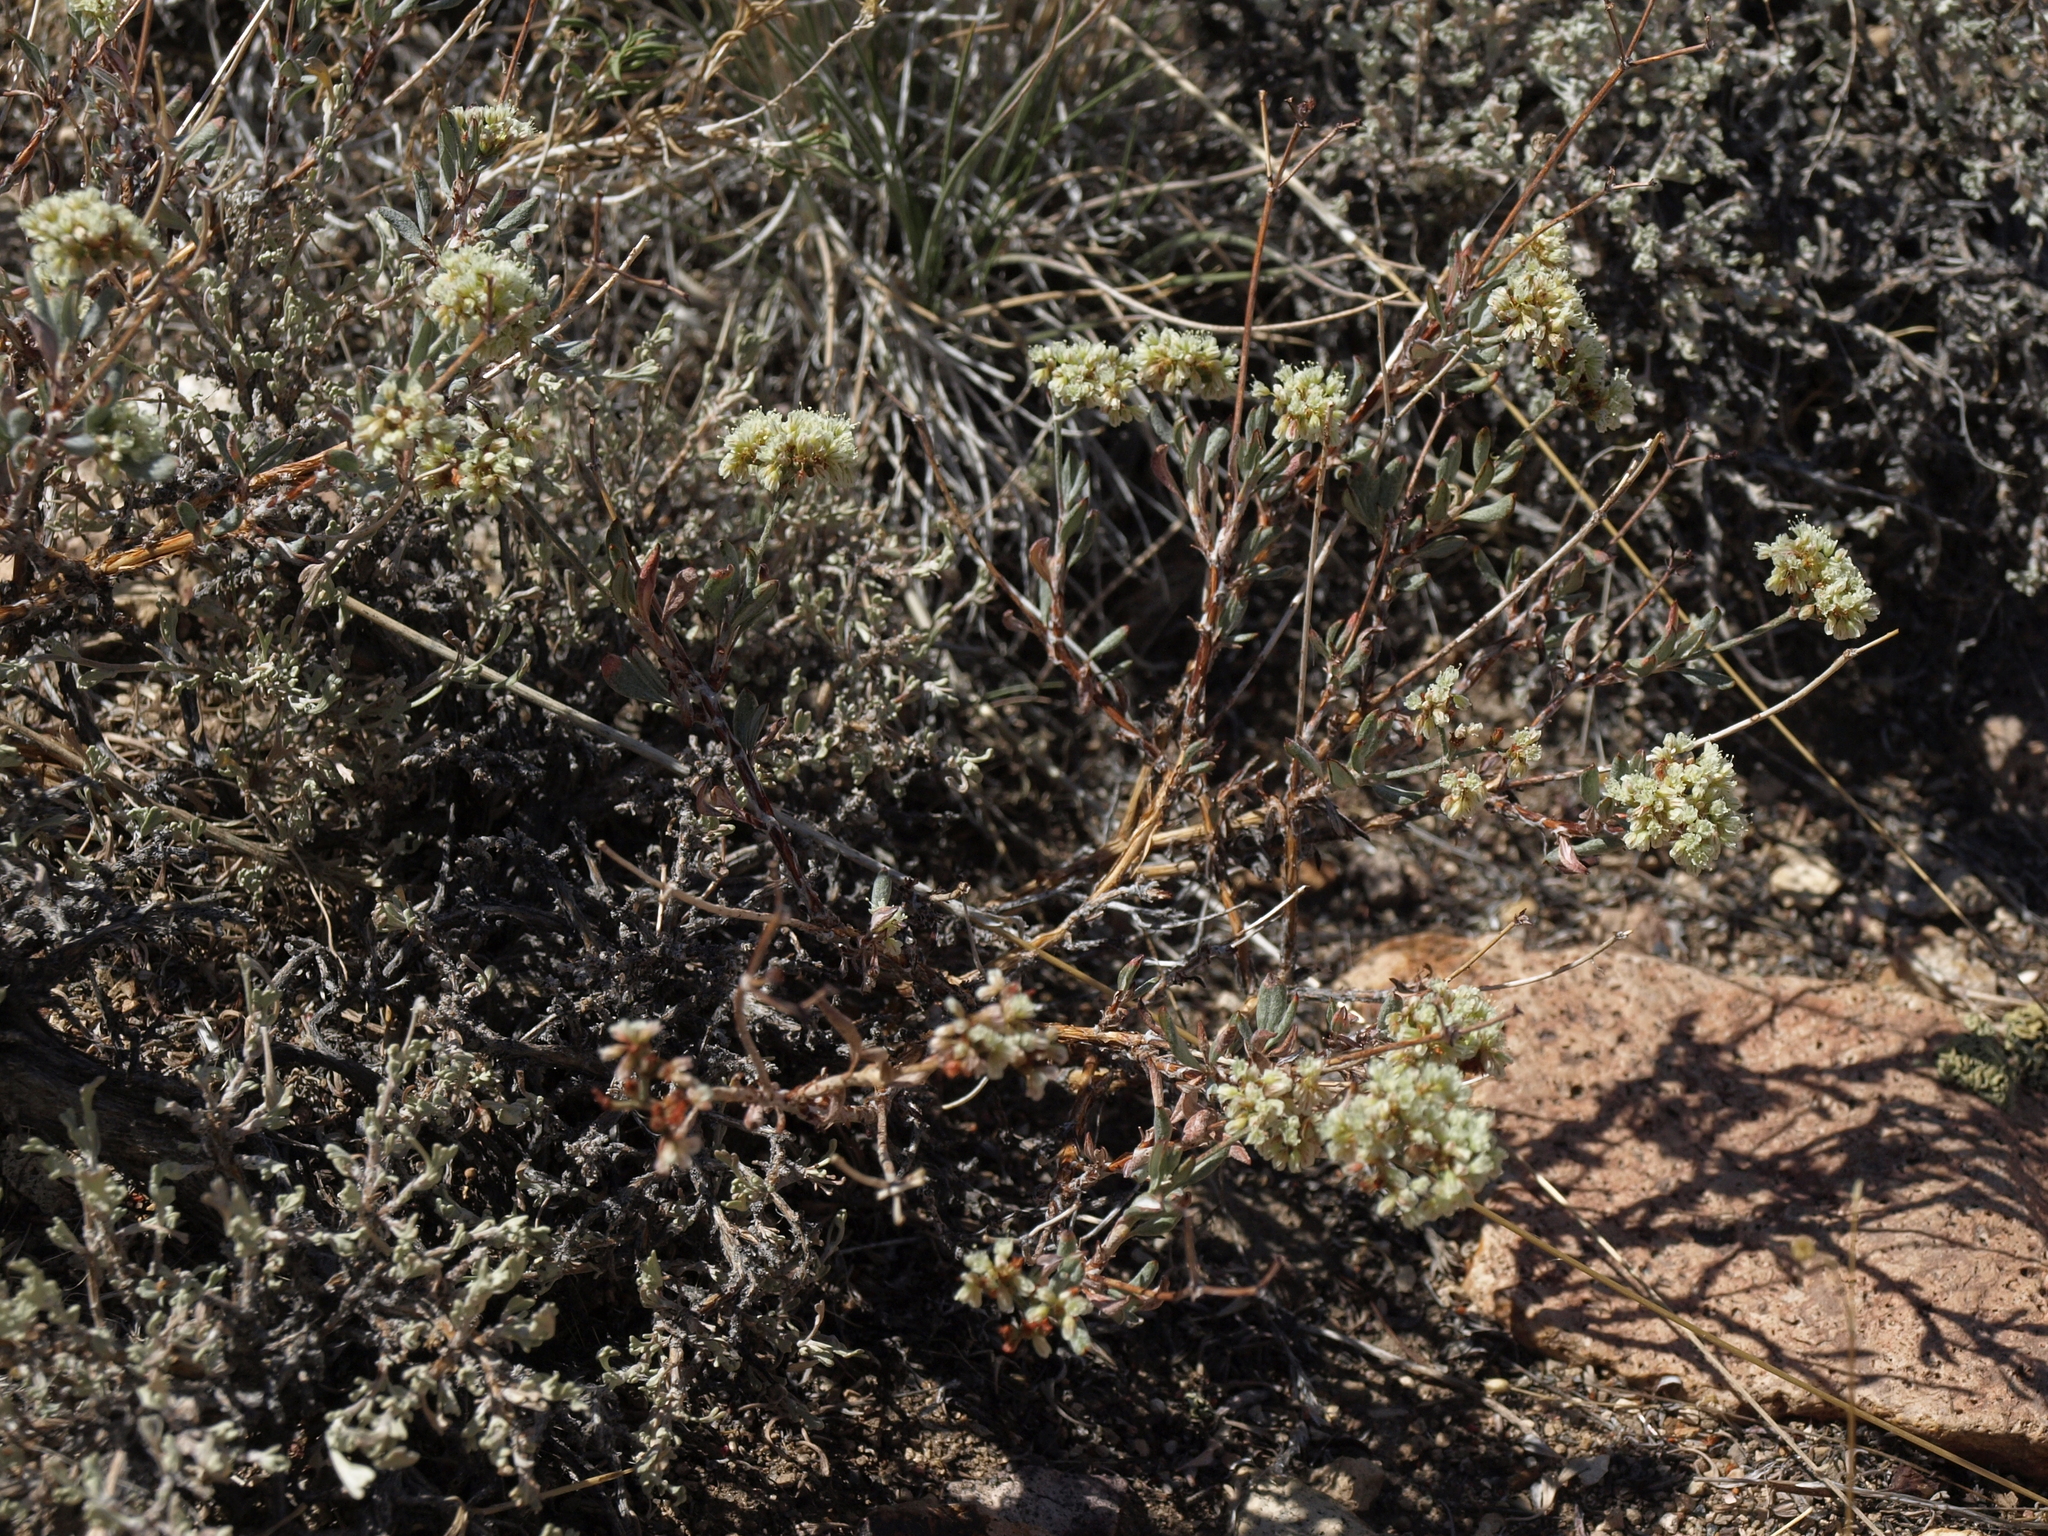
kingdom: Plantae
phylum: Tracheophyta
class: Magnoliopsida
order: Caryophyllales
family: Polygonaceae
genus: Eriogonum
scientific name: Eriogonum microtheca
